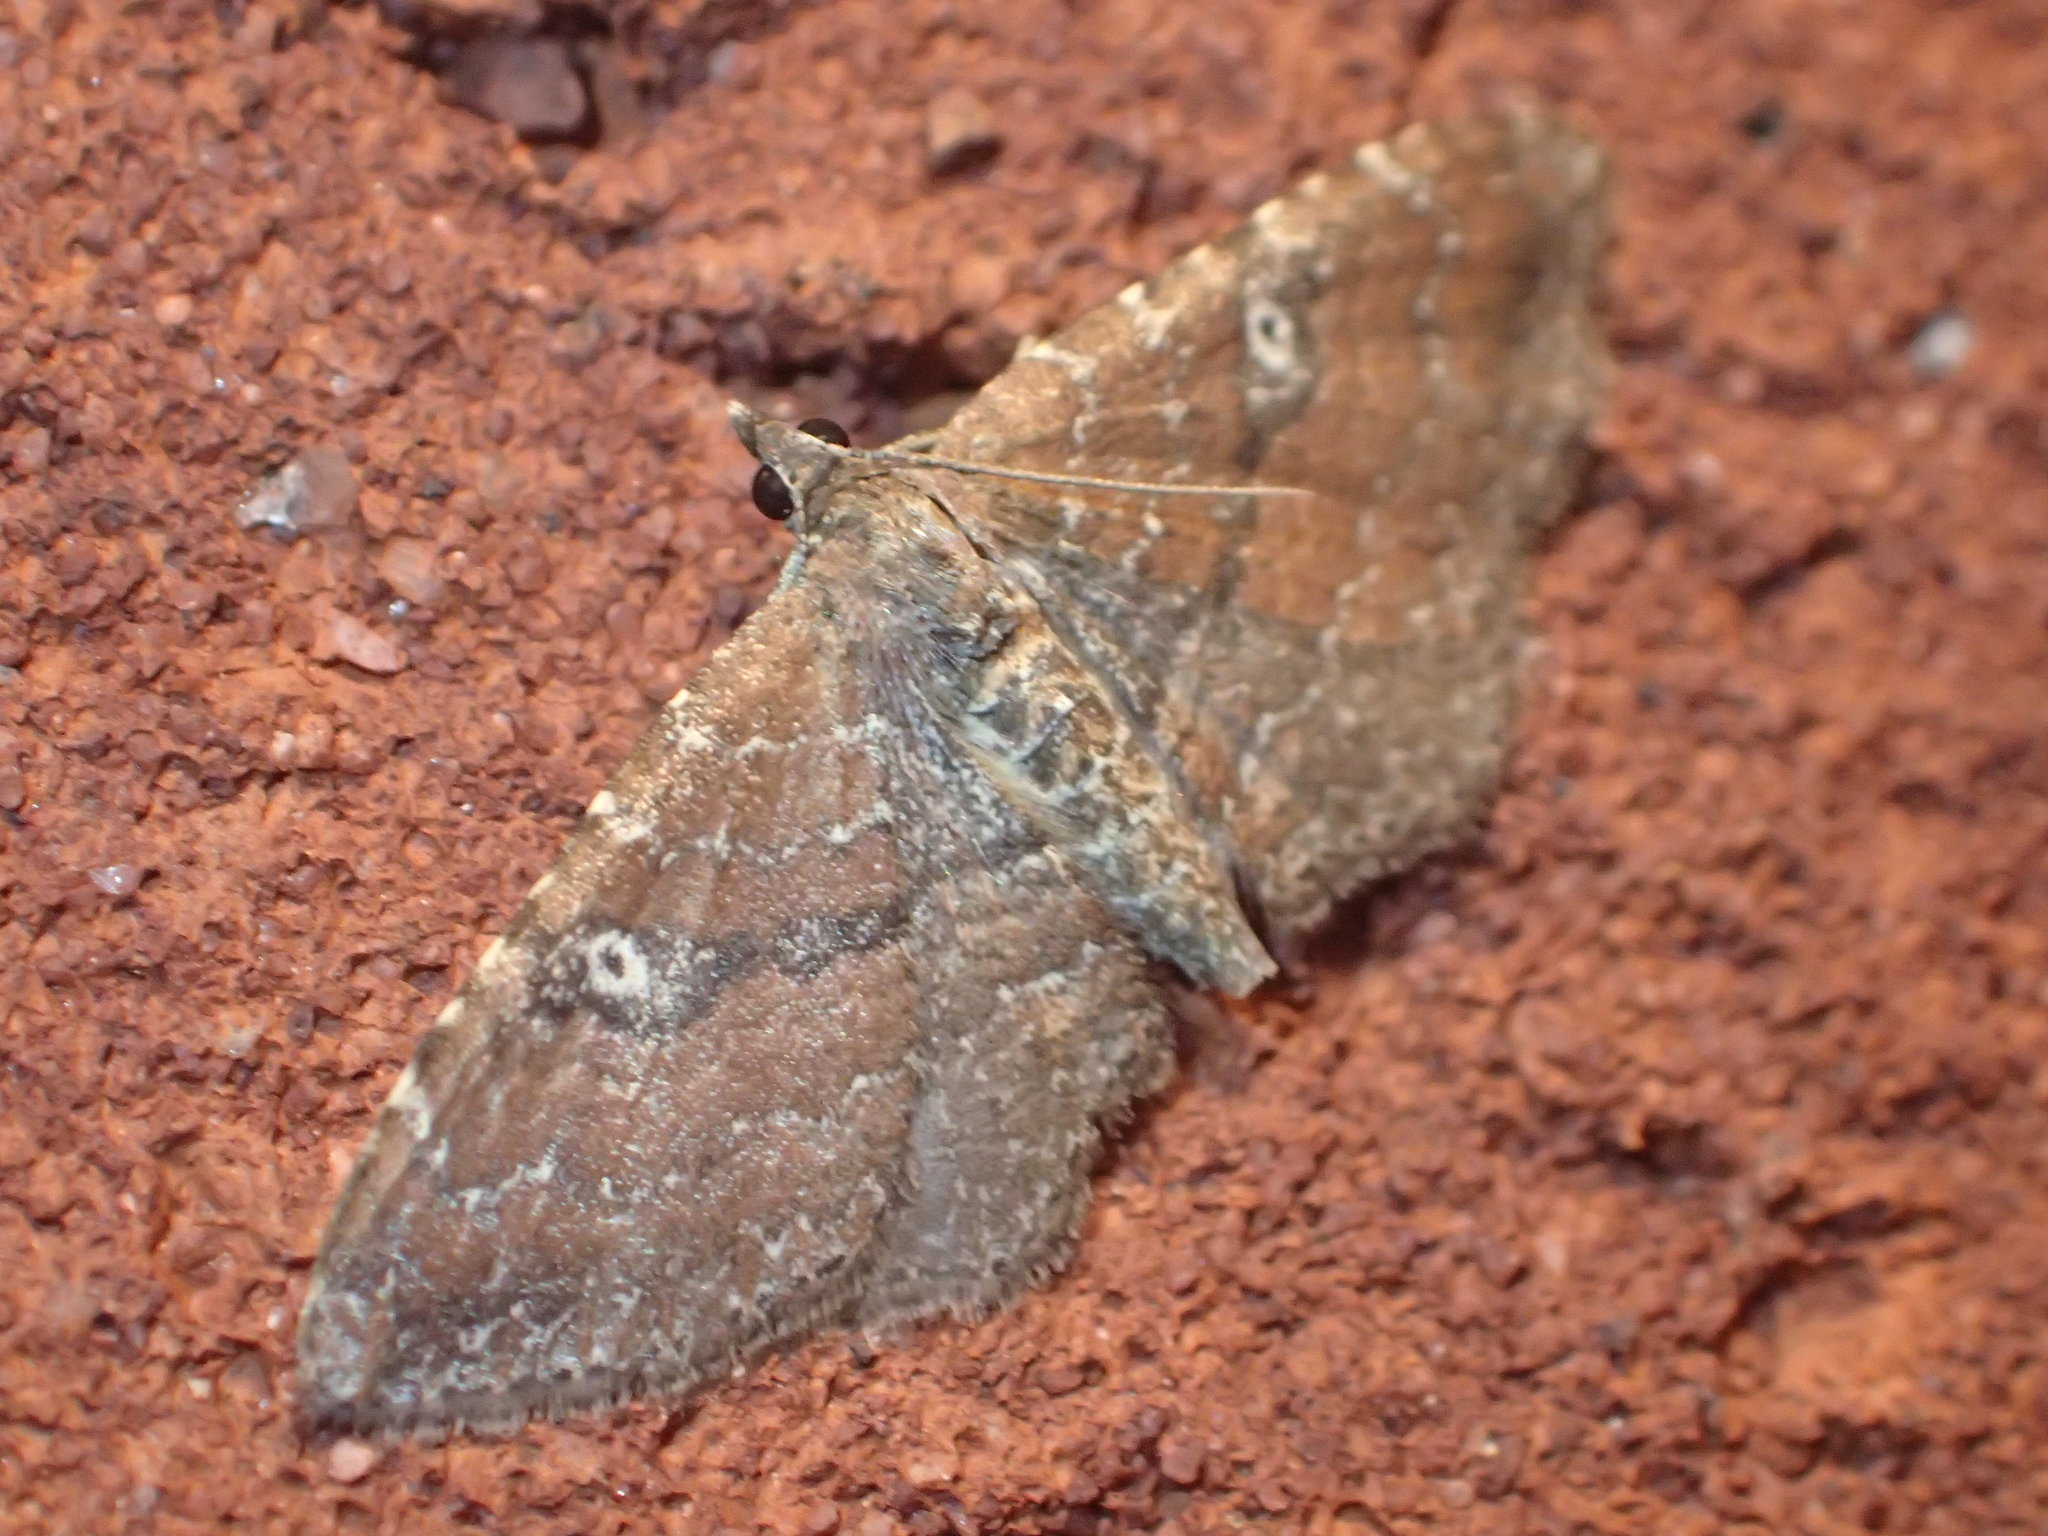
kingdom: Animalia
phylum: Arthropoda
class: Insecta
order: Lepidoptera
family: Geometridae
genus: Orthonama
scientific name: Orthonama obstipata
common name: The gem
